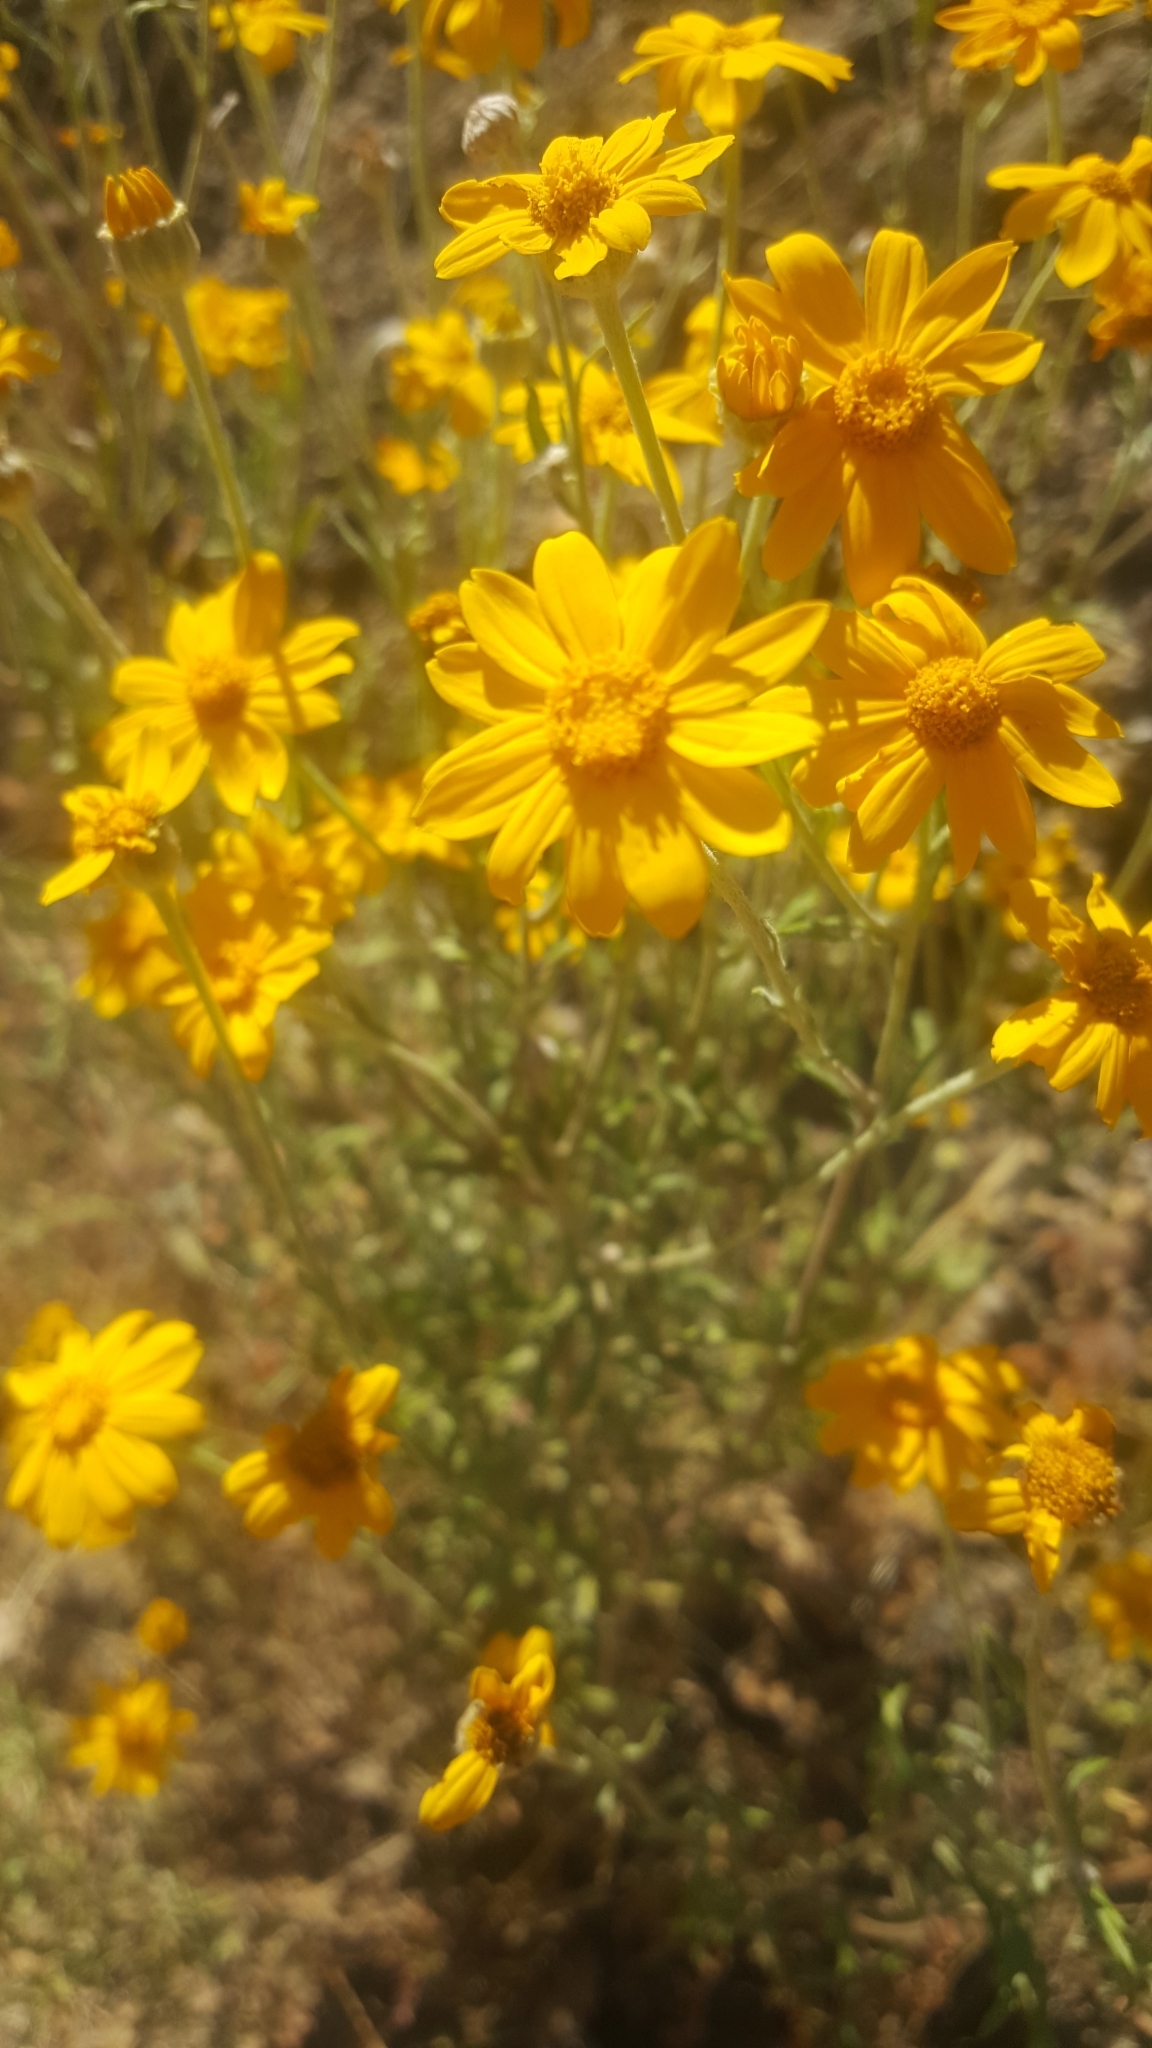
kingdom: Plantae
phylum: Tracheophyta
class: Magnoliopsida
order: Asterales
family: Asteraceae
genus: Eriophyllum
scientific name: Eriophyllum lanatum
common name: Common woolly-sunflower
